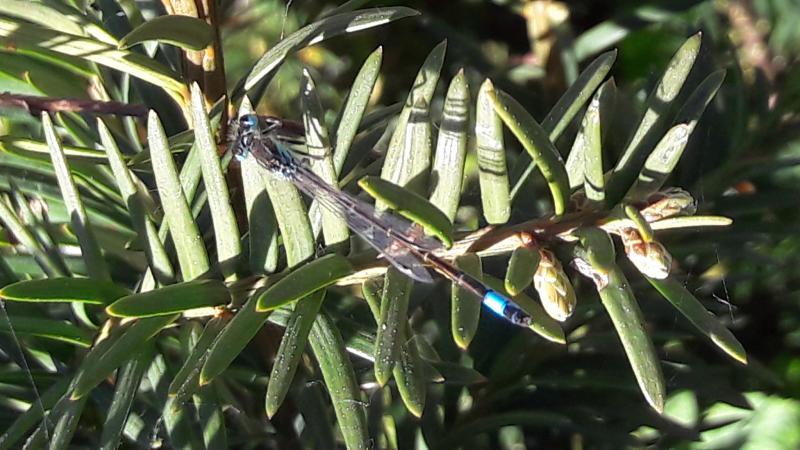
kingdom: Animalia
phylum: Arthropoda
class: Insecta
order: Odonata
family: Coenagrionidae
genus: Ischnura
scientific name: Ischnura graellsii
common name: Iberian bluetail
